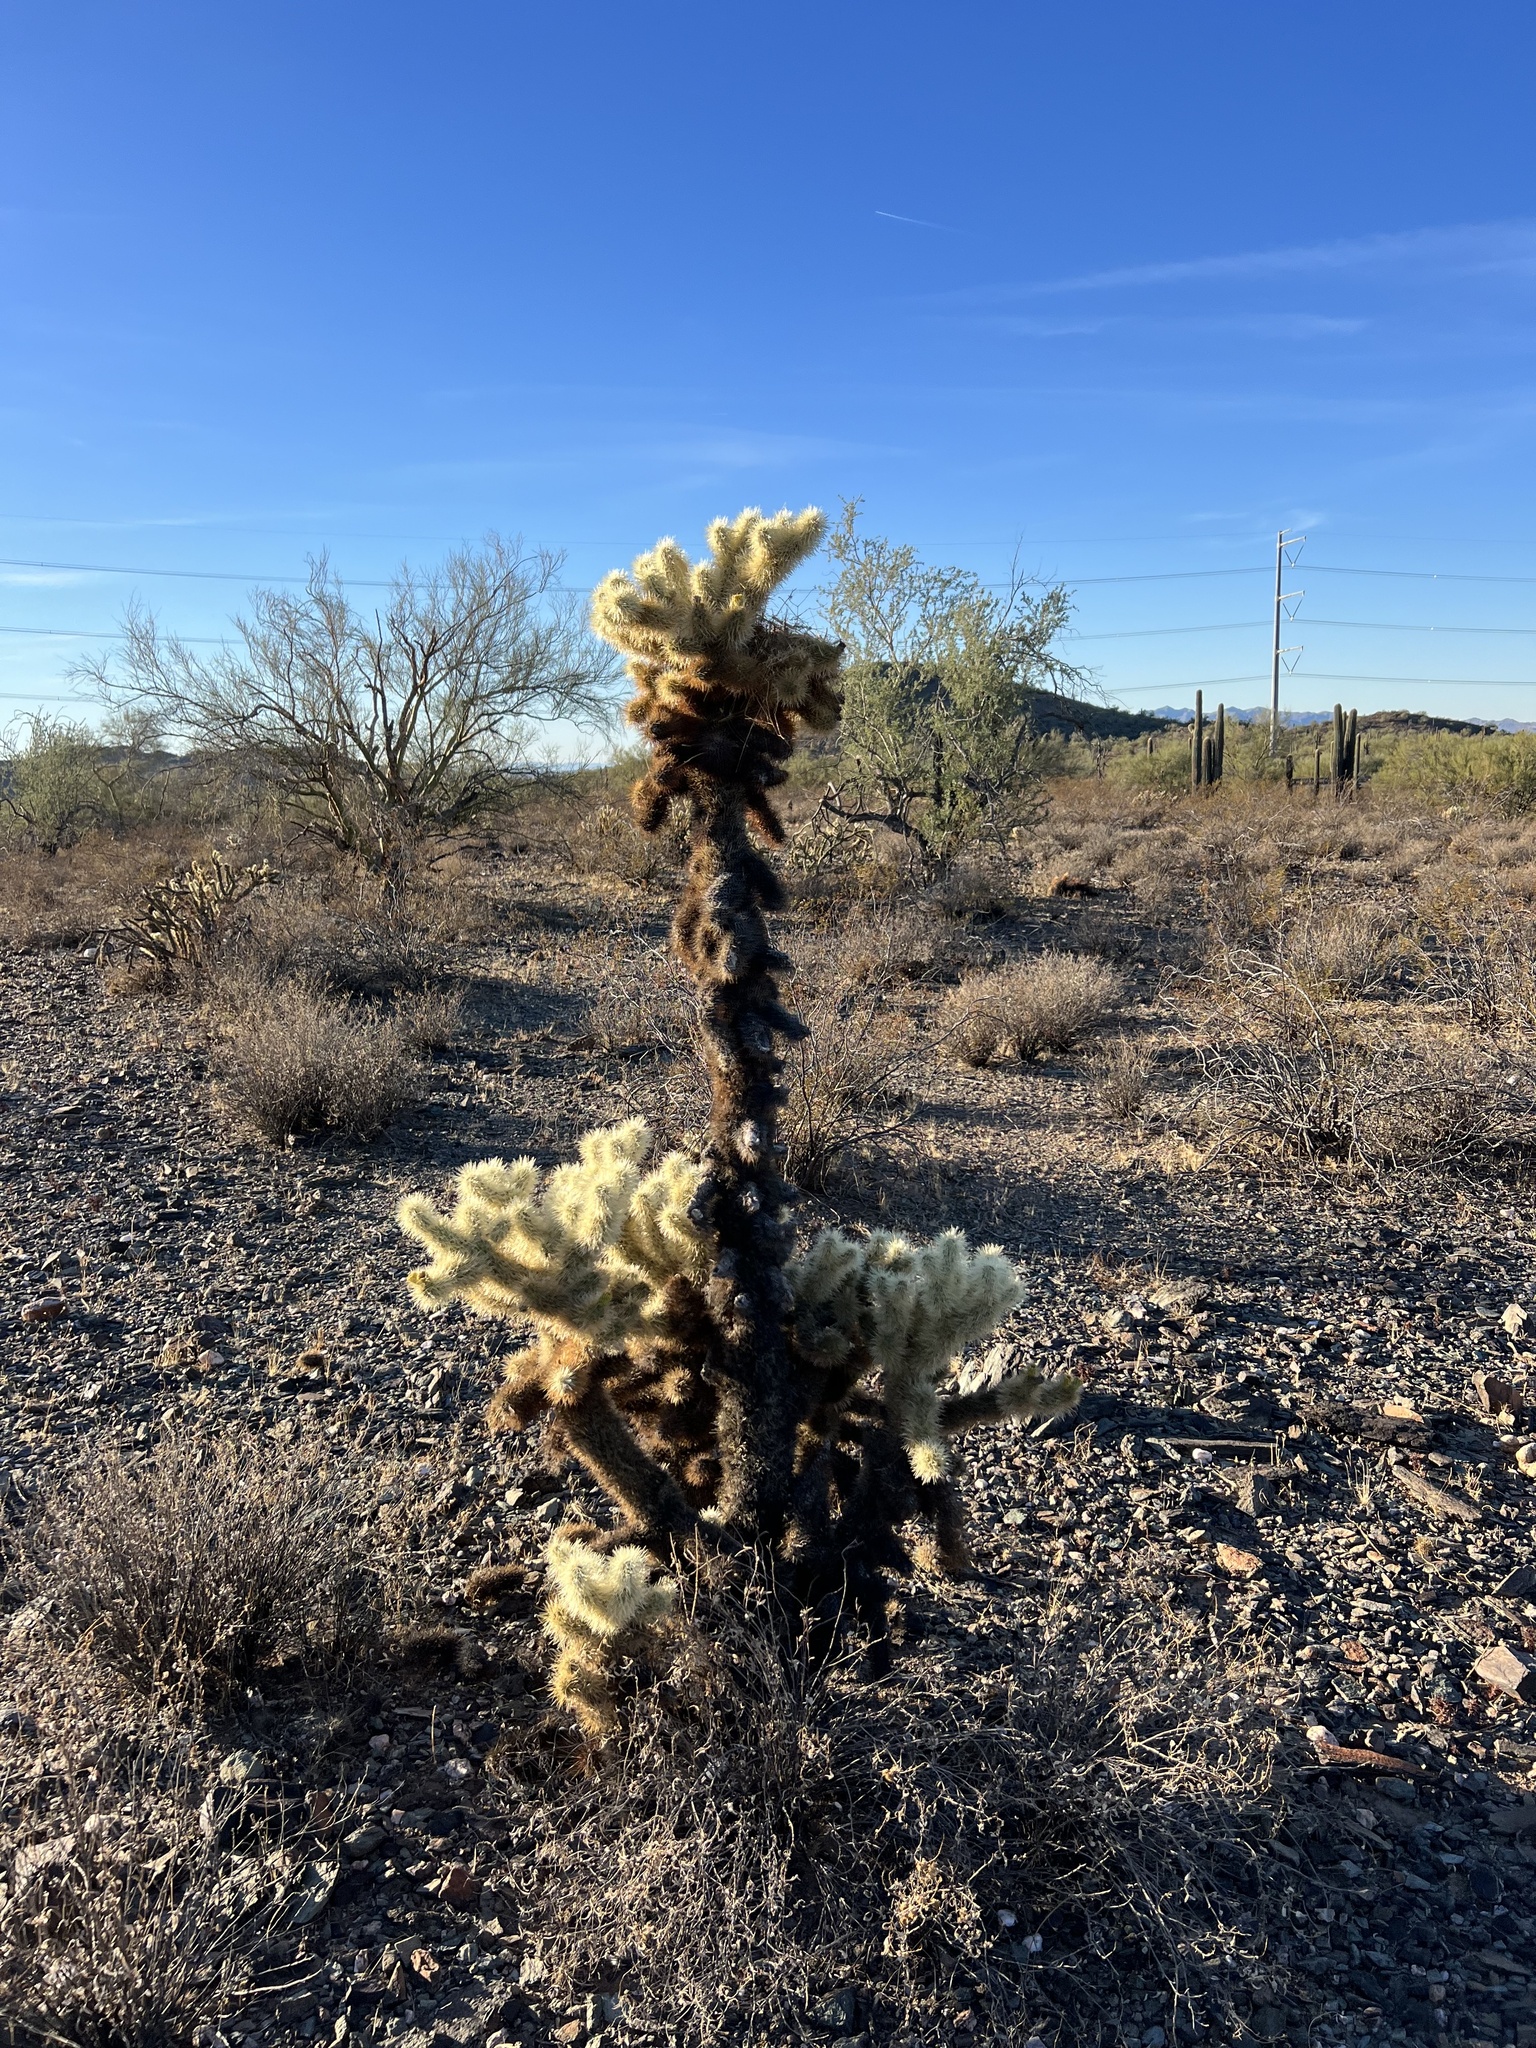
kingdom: Plantae
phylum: Tracheophyta
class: Magnoliopsida
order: Caryophyllales
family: Cactaceae
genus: Cylindropuntia
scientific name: Cylindropuntia fosbergii
